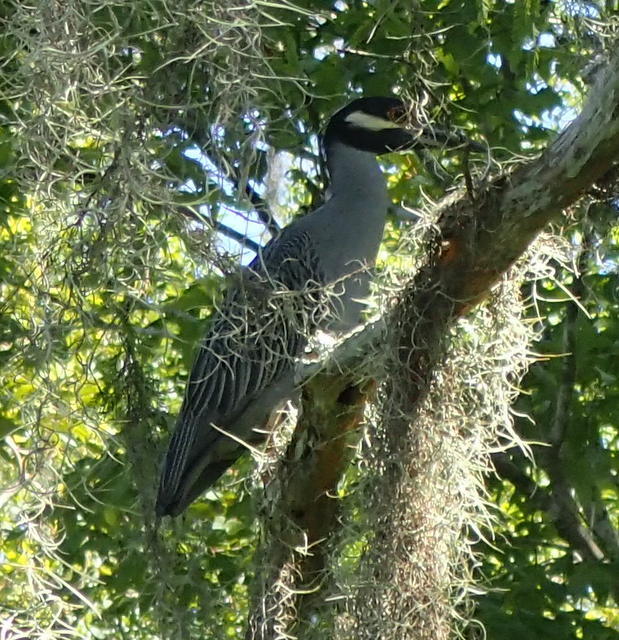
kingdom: Animalia
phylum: Chordata
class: Aves
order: Pelecaniformes
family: Ardeidae
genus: Nyctanassa
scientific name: Nyctanassa violacea
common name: Yellow-crowned night heron
